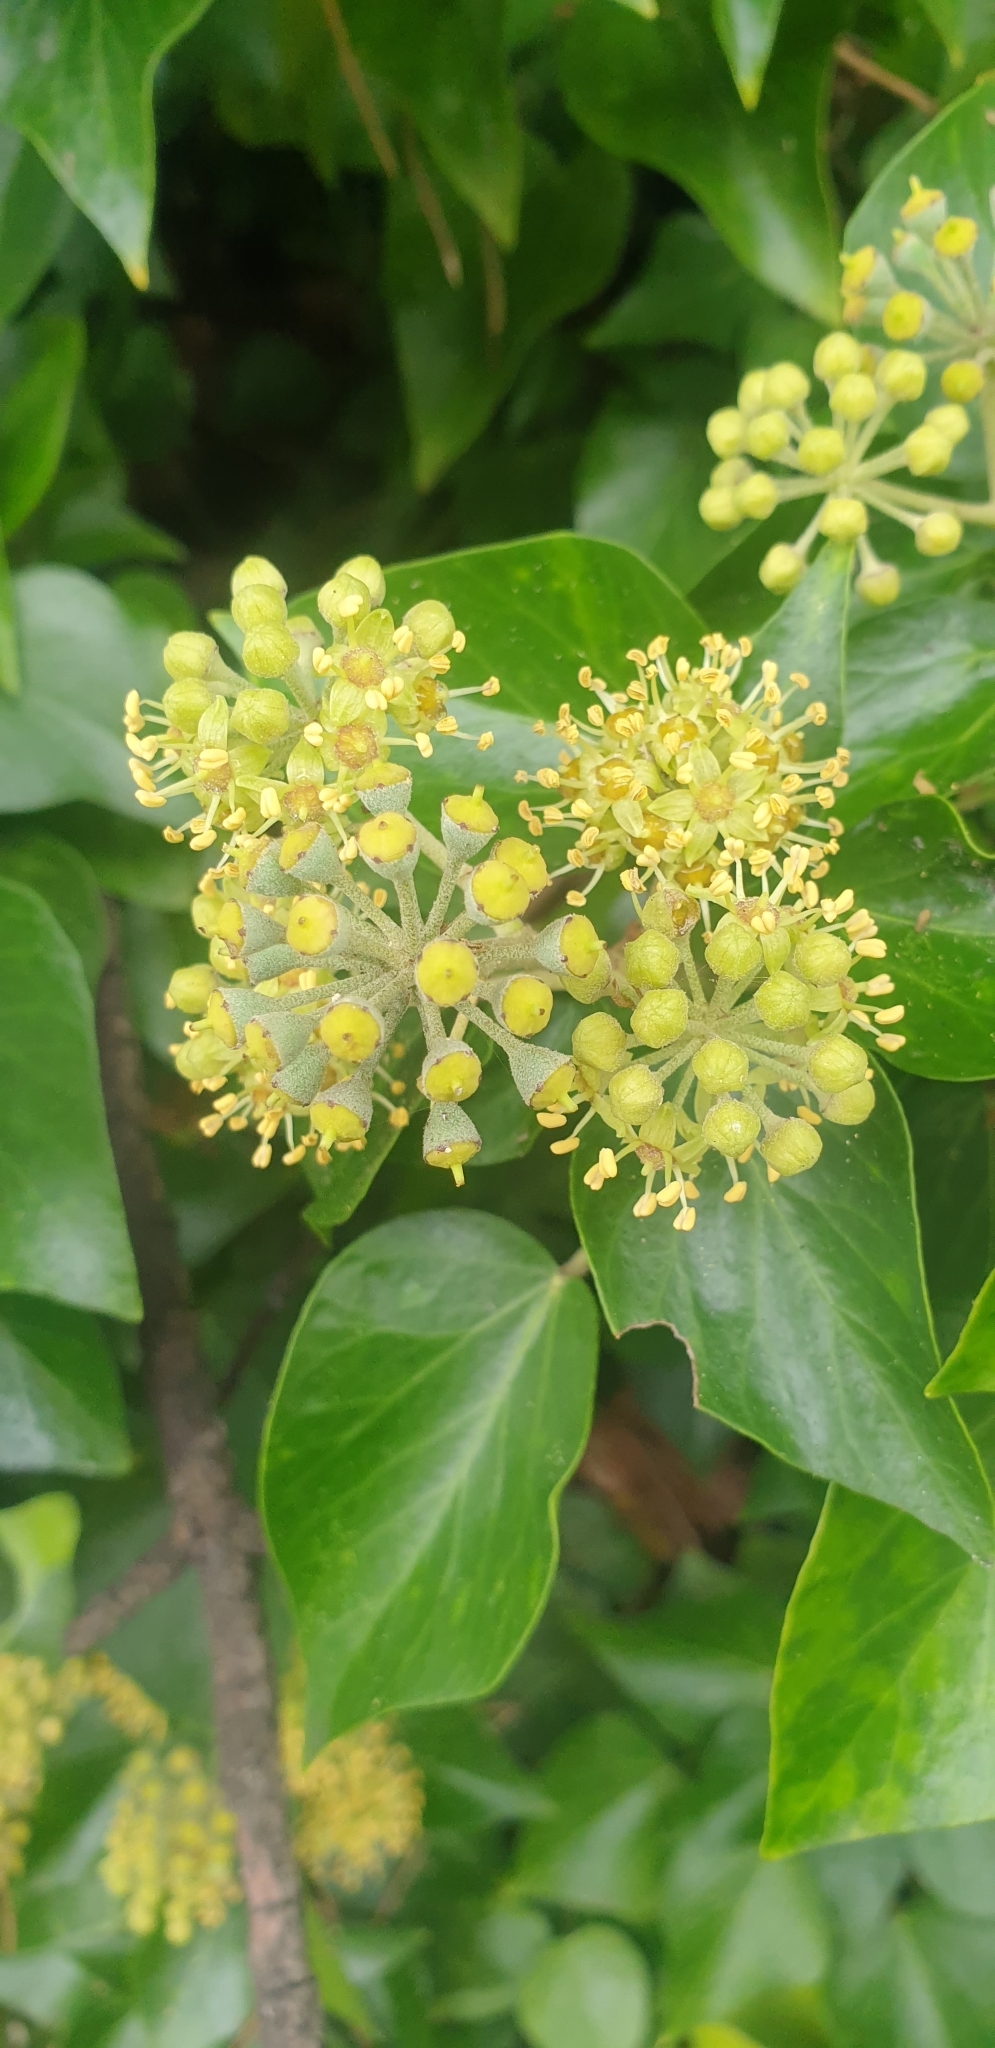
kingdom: Plantae
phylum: Tracheophyta
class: Magnoliopsida
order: Apiales
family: Araliaceae
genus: Hedera
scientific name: Hedera helix
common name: Ivy
